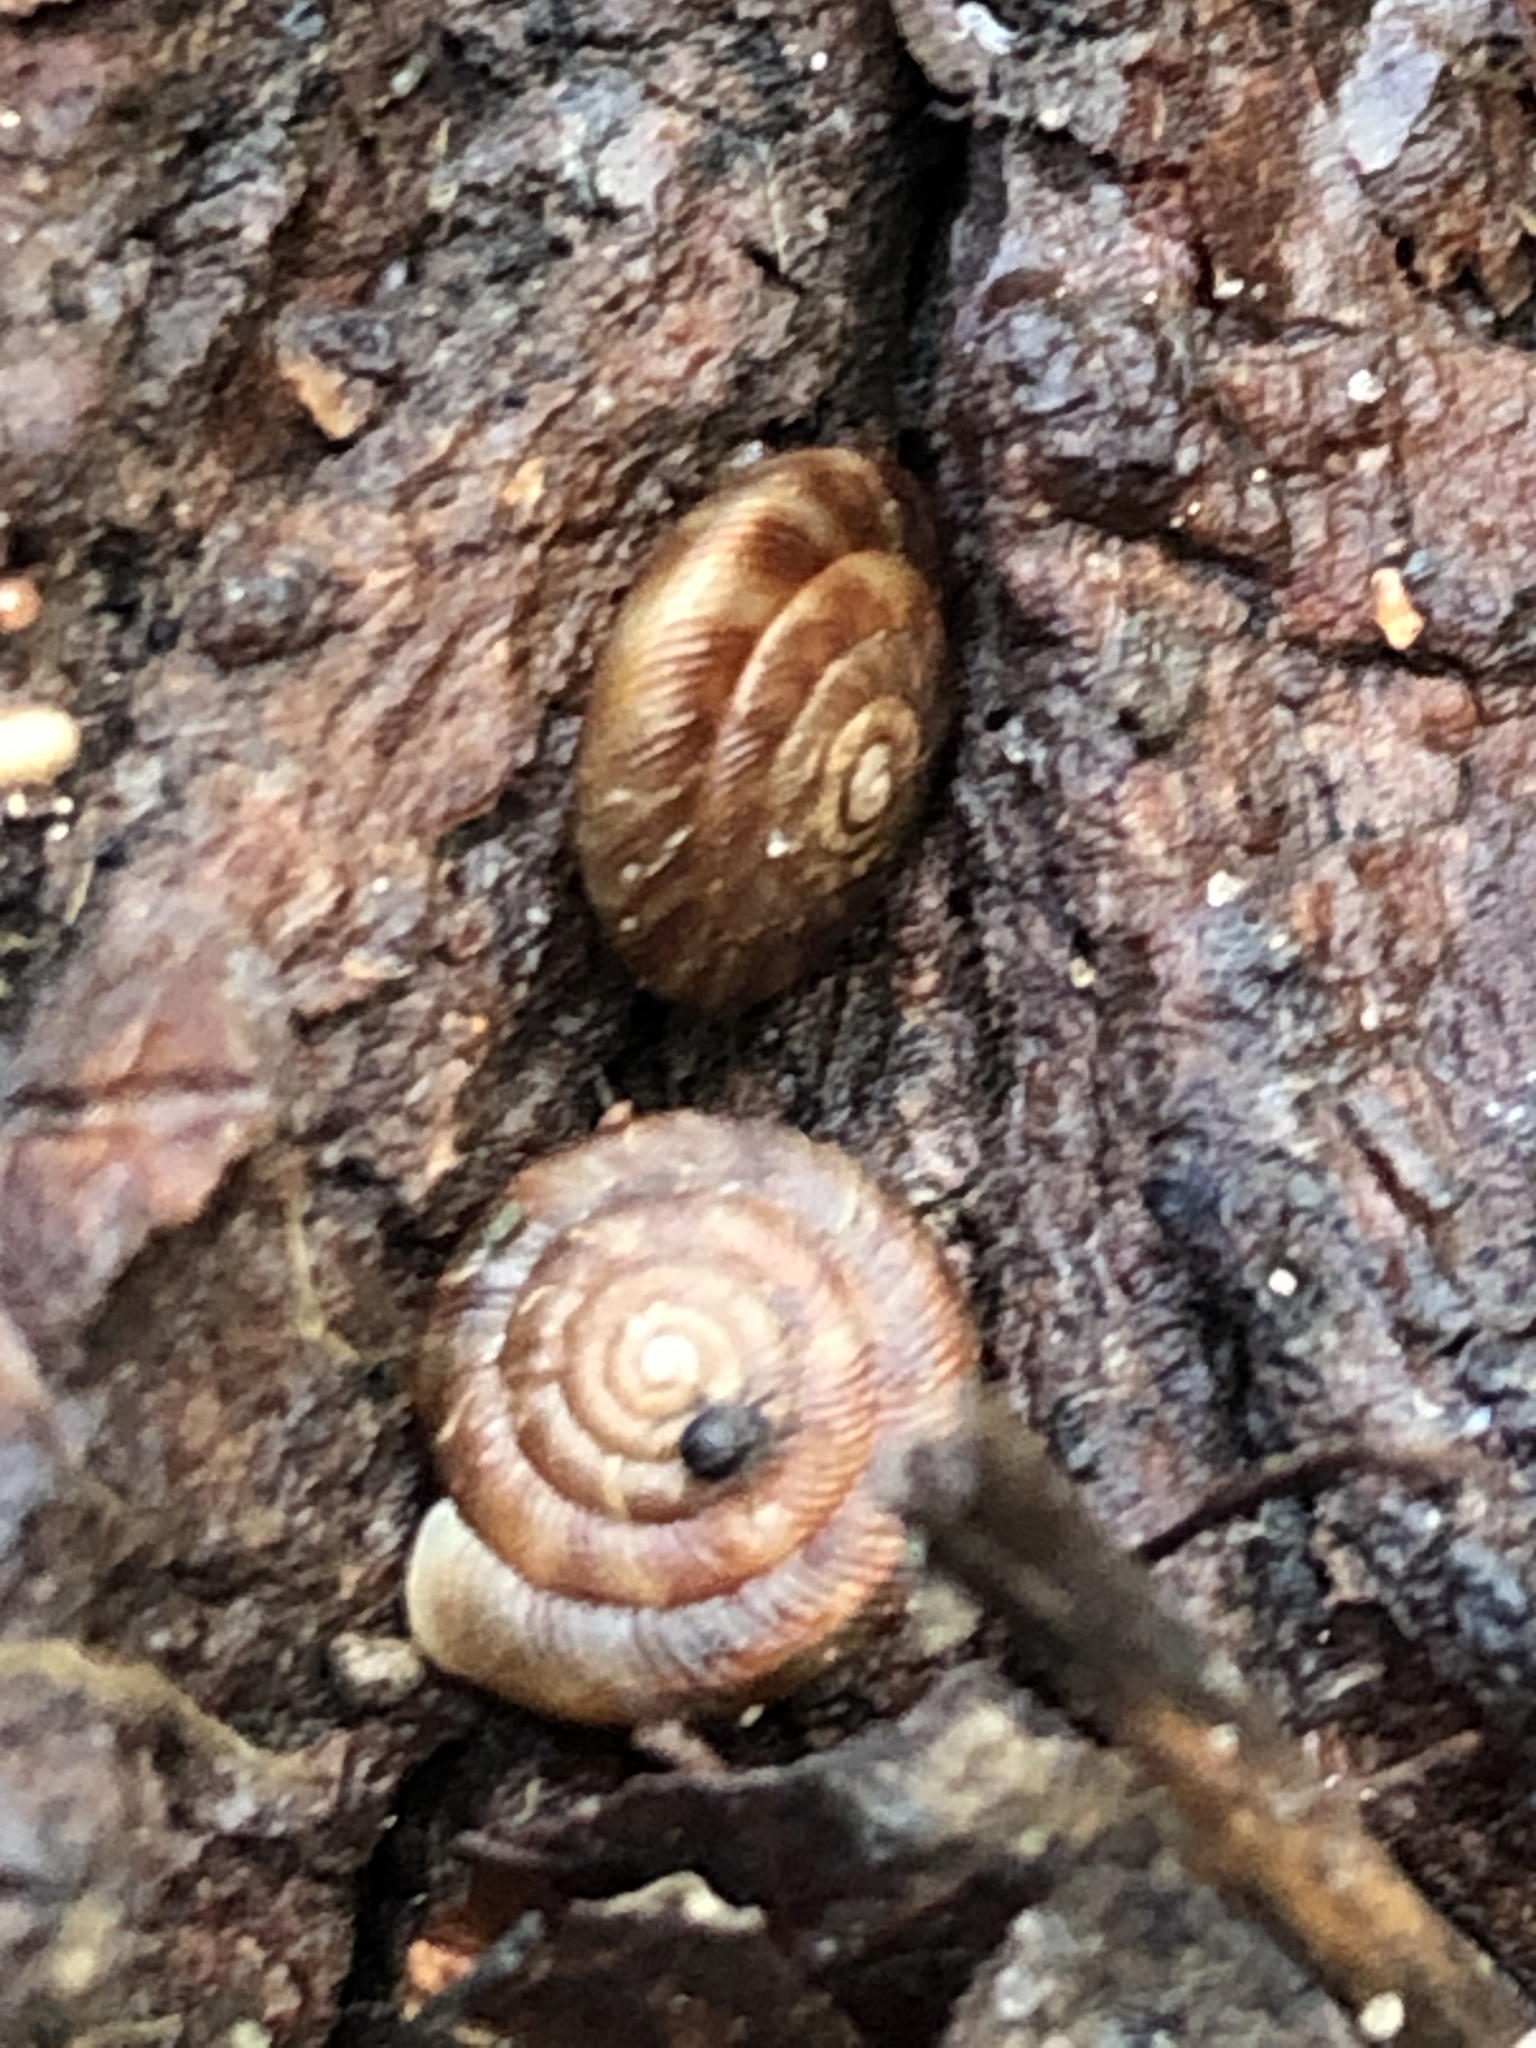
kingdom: Animalia
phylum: Mollusca
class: Gastropoda
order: Stylommatophora
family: Discidae
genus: Discus
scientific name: Discus rotundatus
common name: Rounded snail
